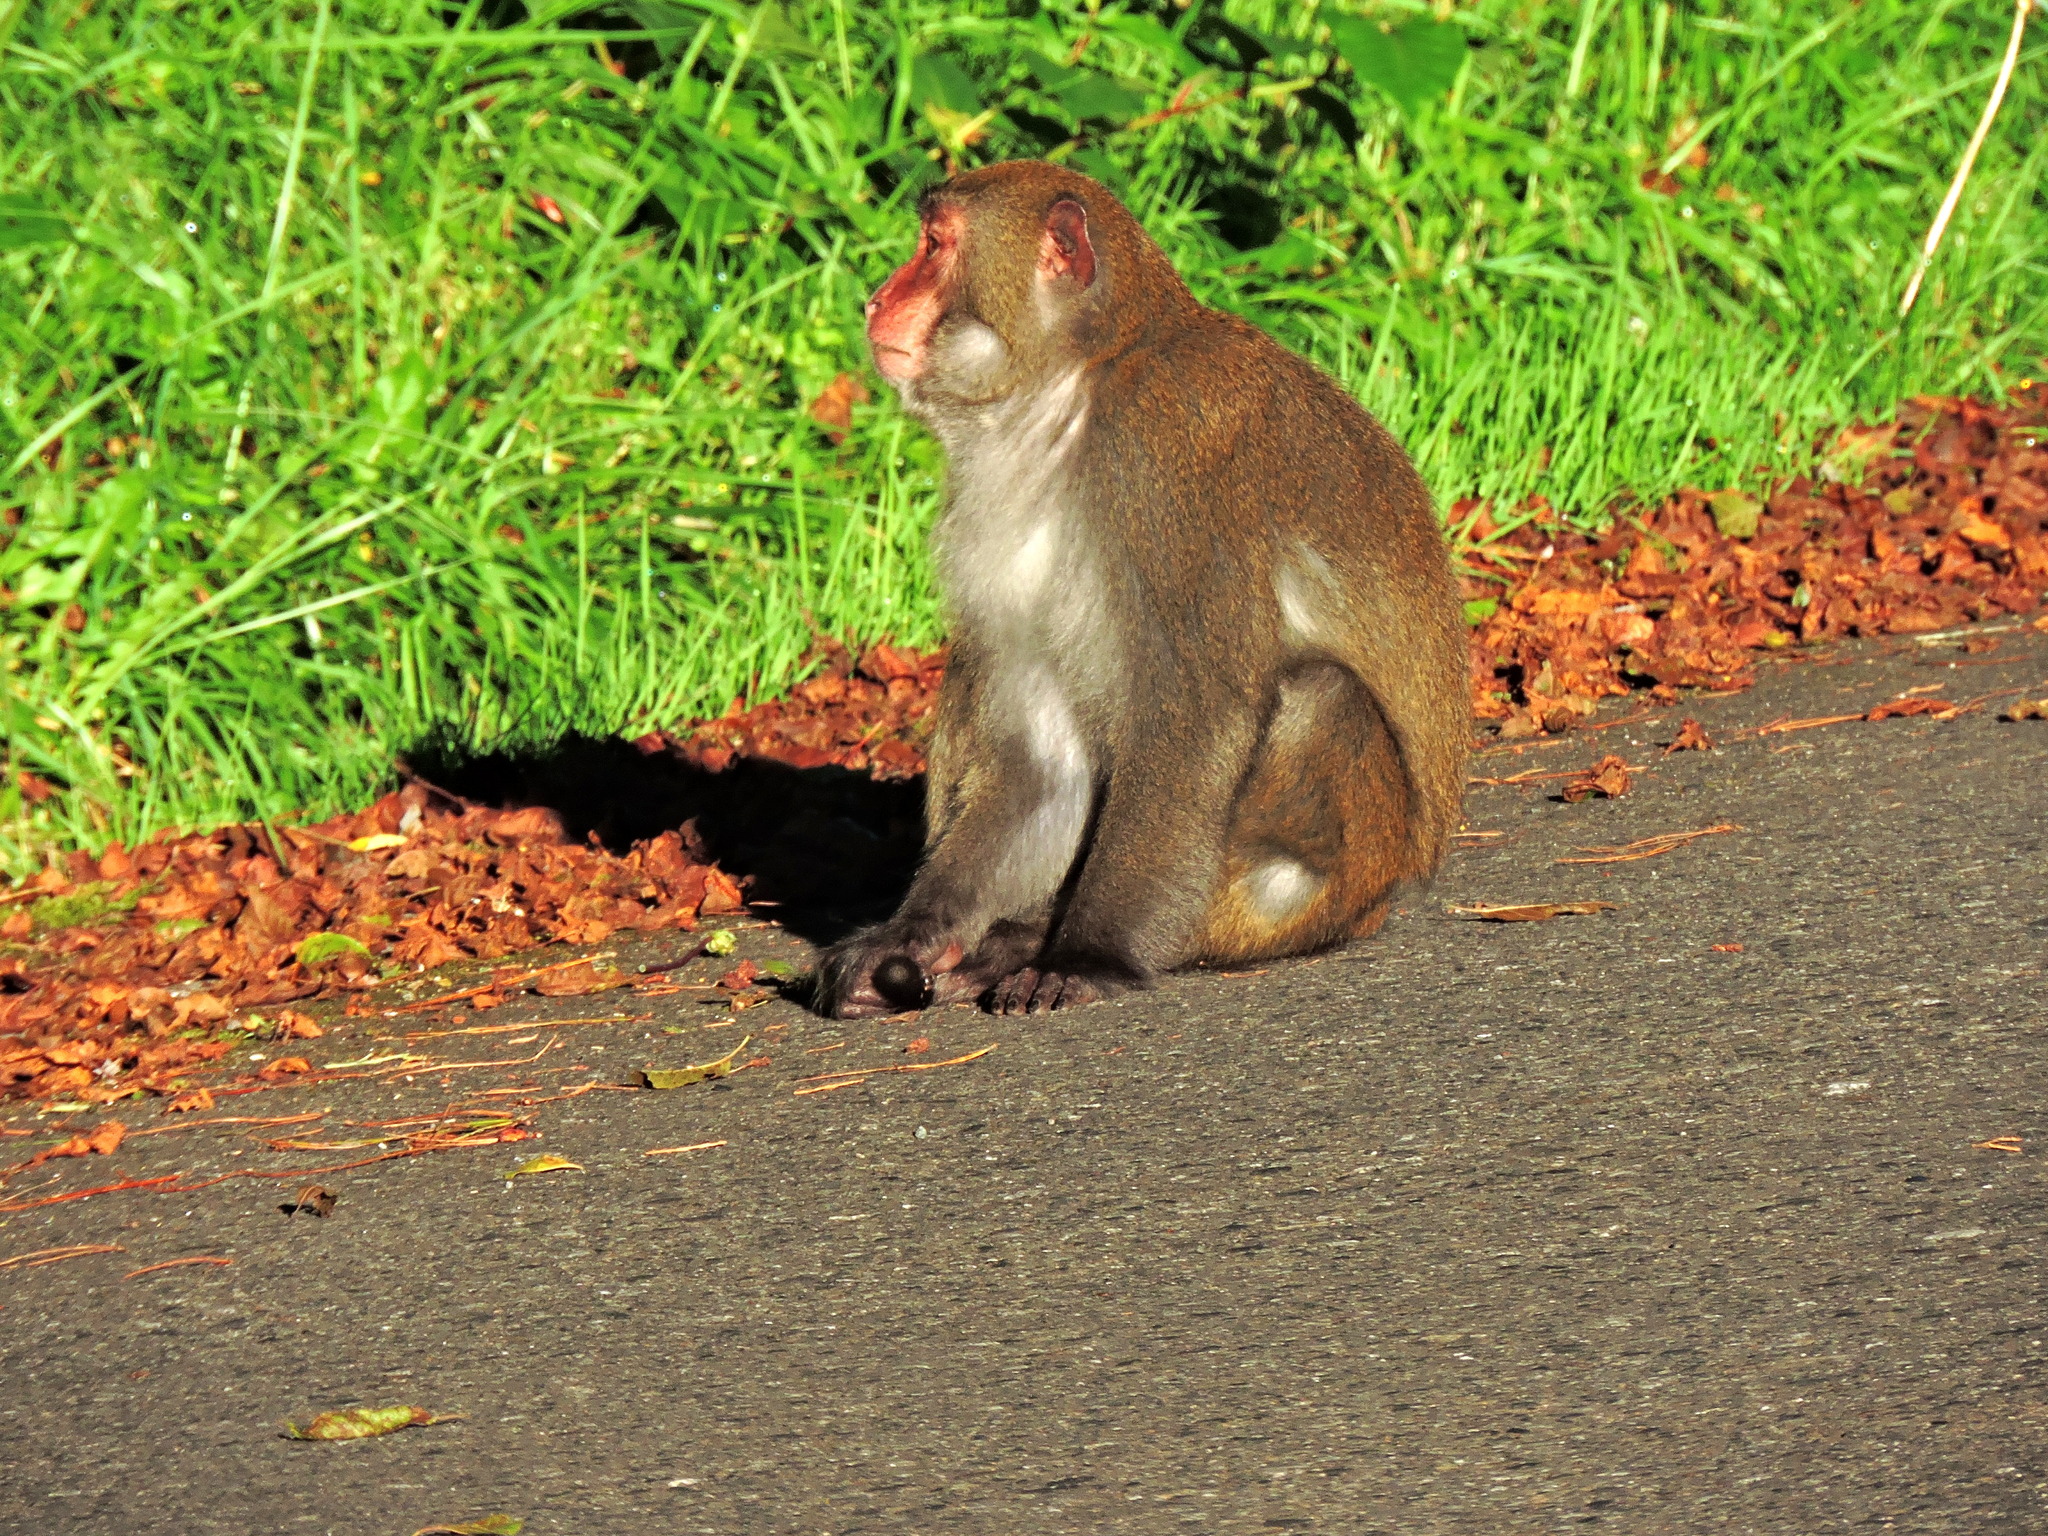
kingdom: Animalia
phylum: Chordata
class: Mammalia
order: Primates
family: Cercopithecidae
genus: Macaca
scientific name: Macaca cyclopis
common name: Formosan rock macaque
